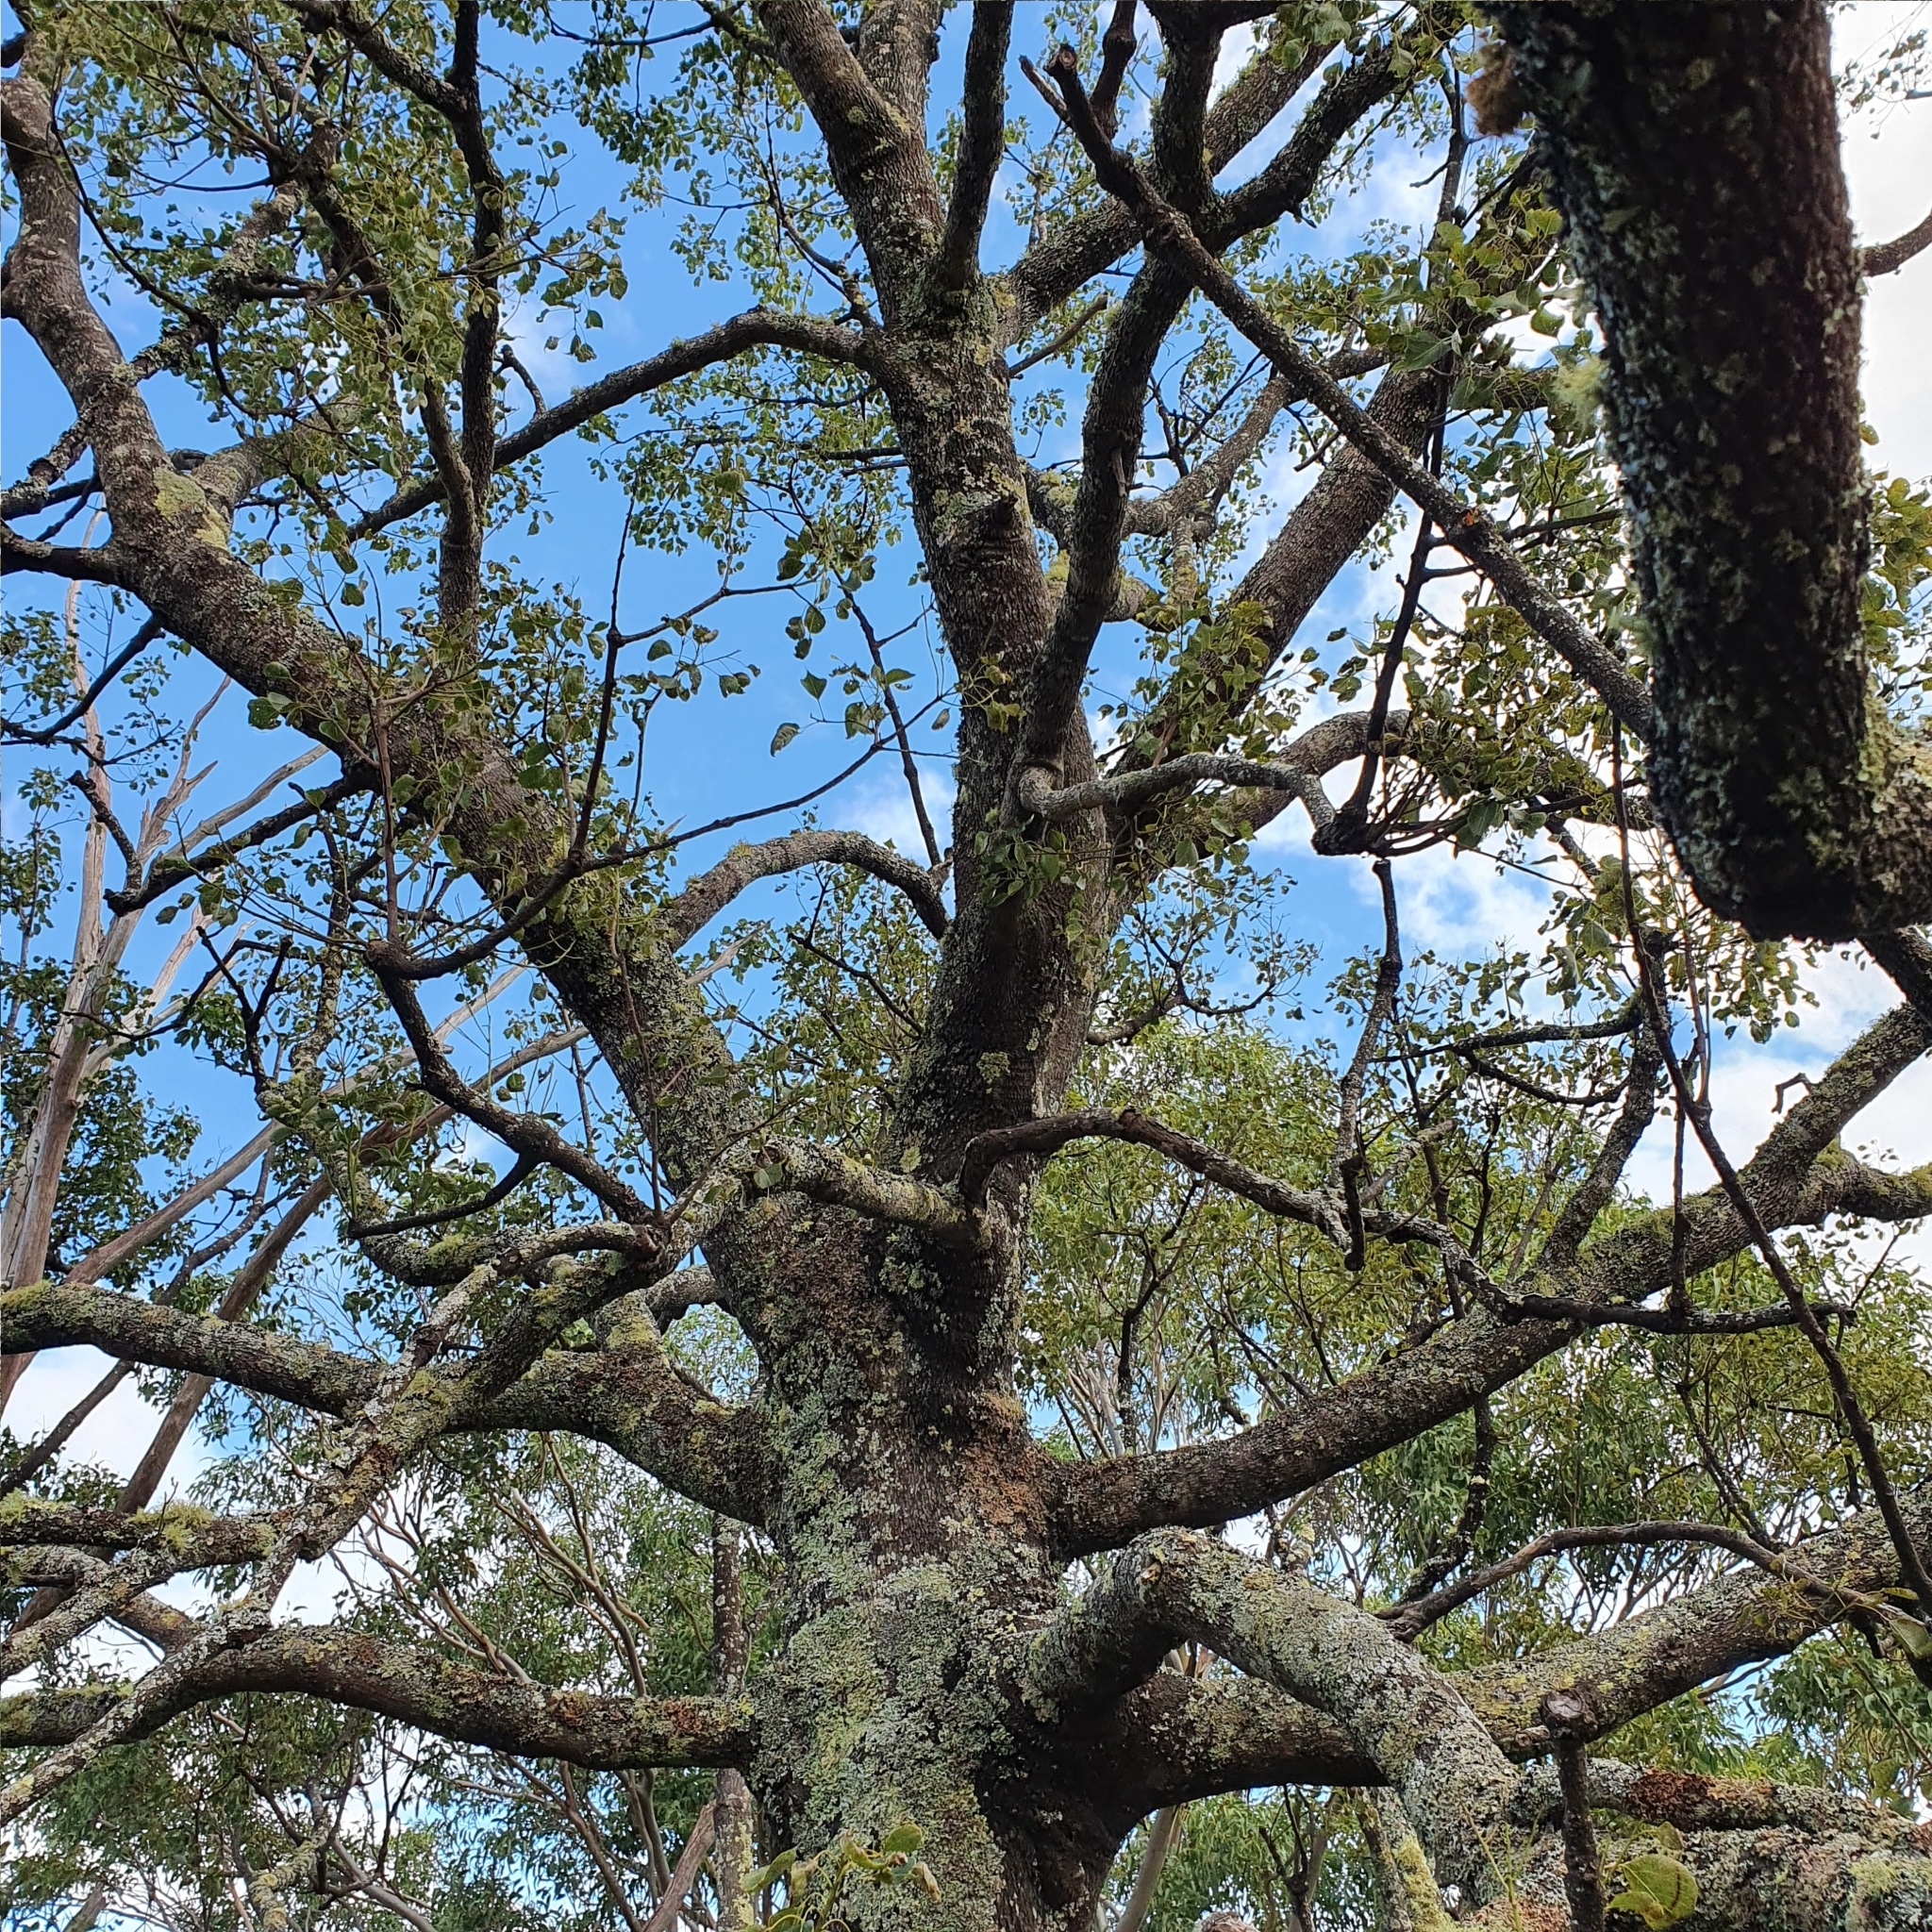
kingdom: Plantae
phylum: Tracheophyta
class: Magnoliopsida
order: Malvales
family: Malvaceae
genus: Brachychiton
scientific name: Brachychiton populneus
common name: Kurrajong
